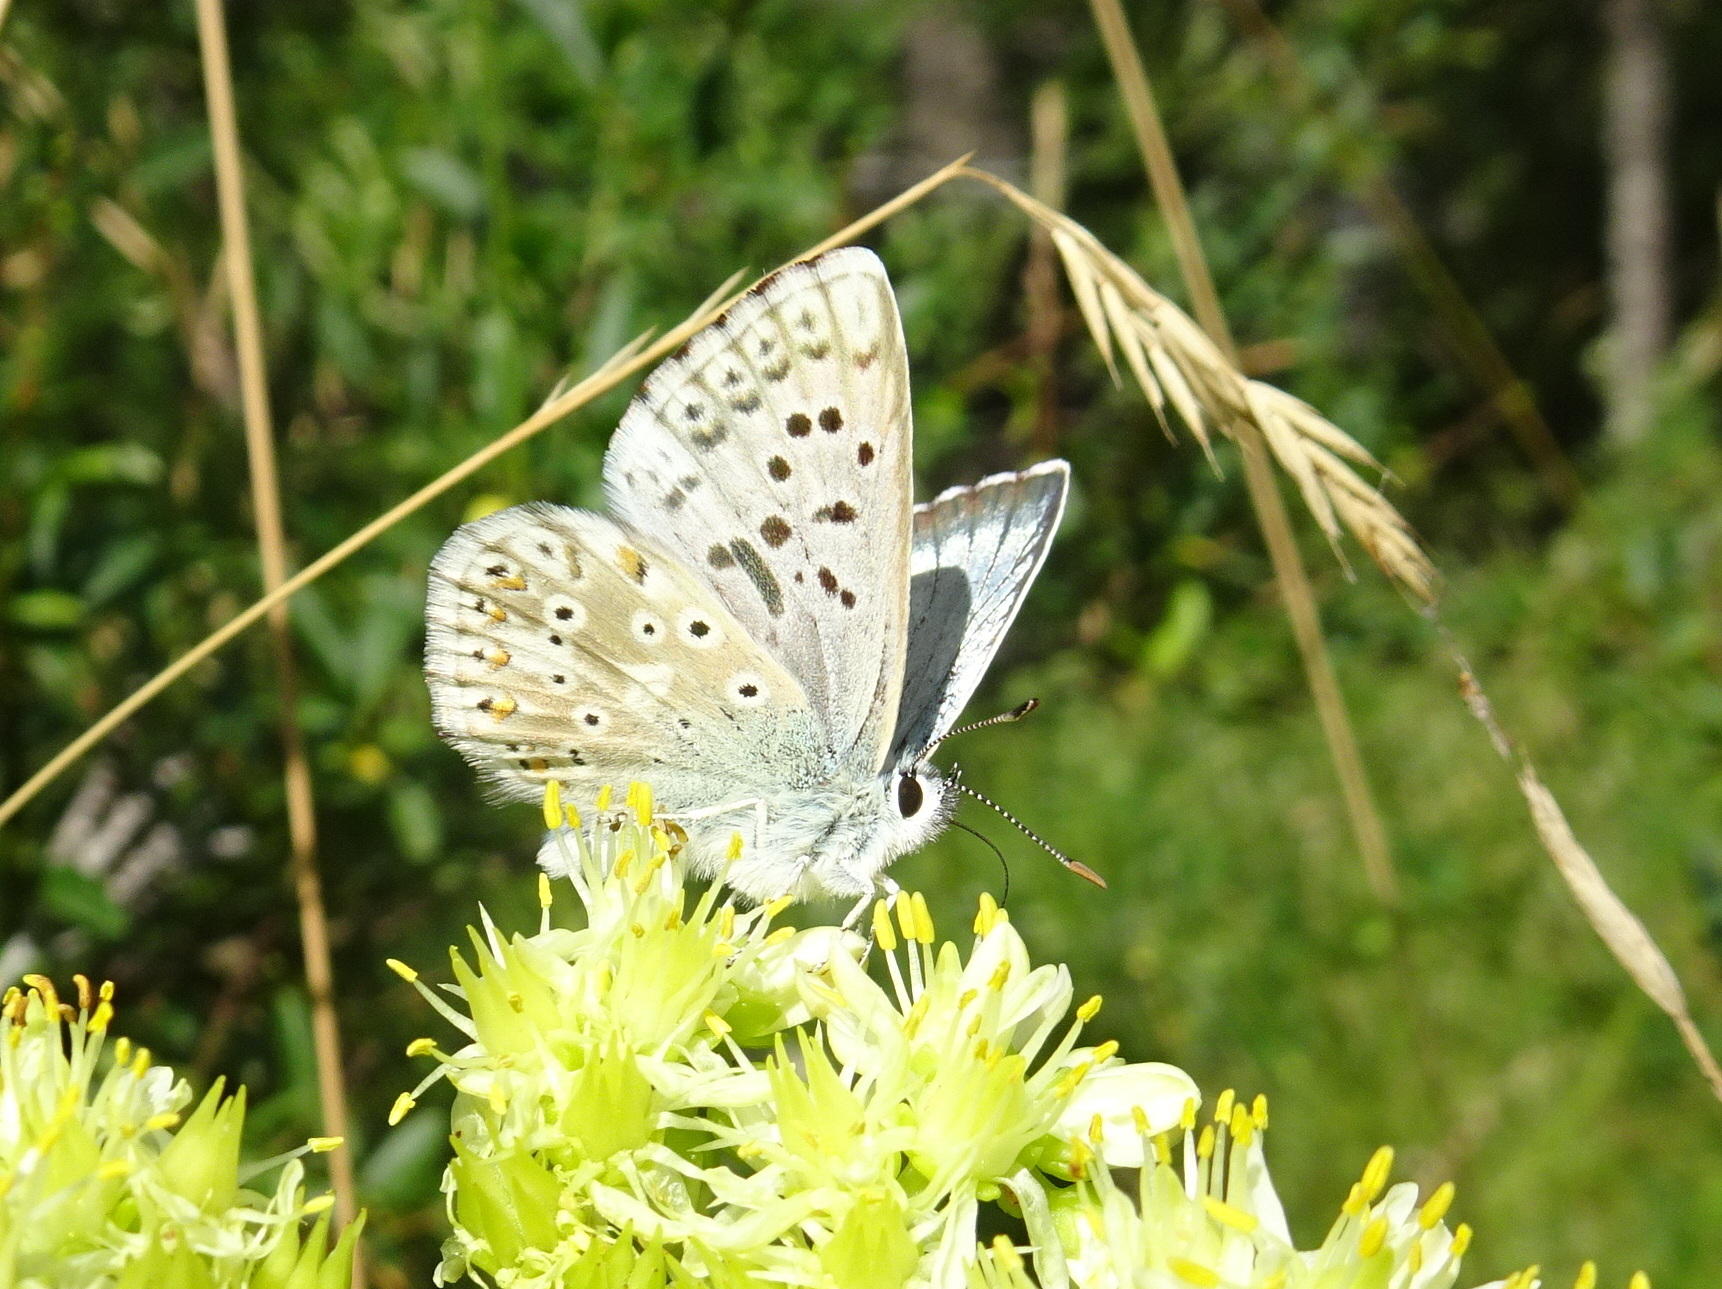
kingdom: Animalia
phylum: Arthropoda
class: Insecta
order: Lepidoptera
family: Lycaenidae
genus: Lysandra
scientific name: Lysandra coridon
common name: Chalkhill blue
